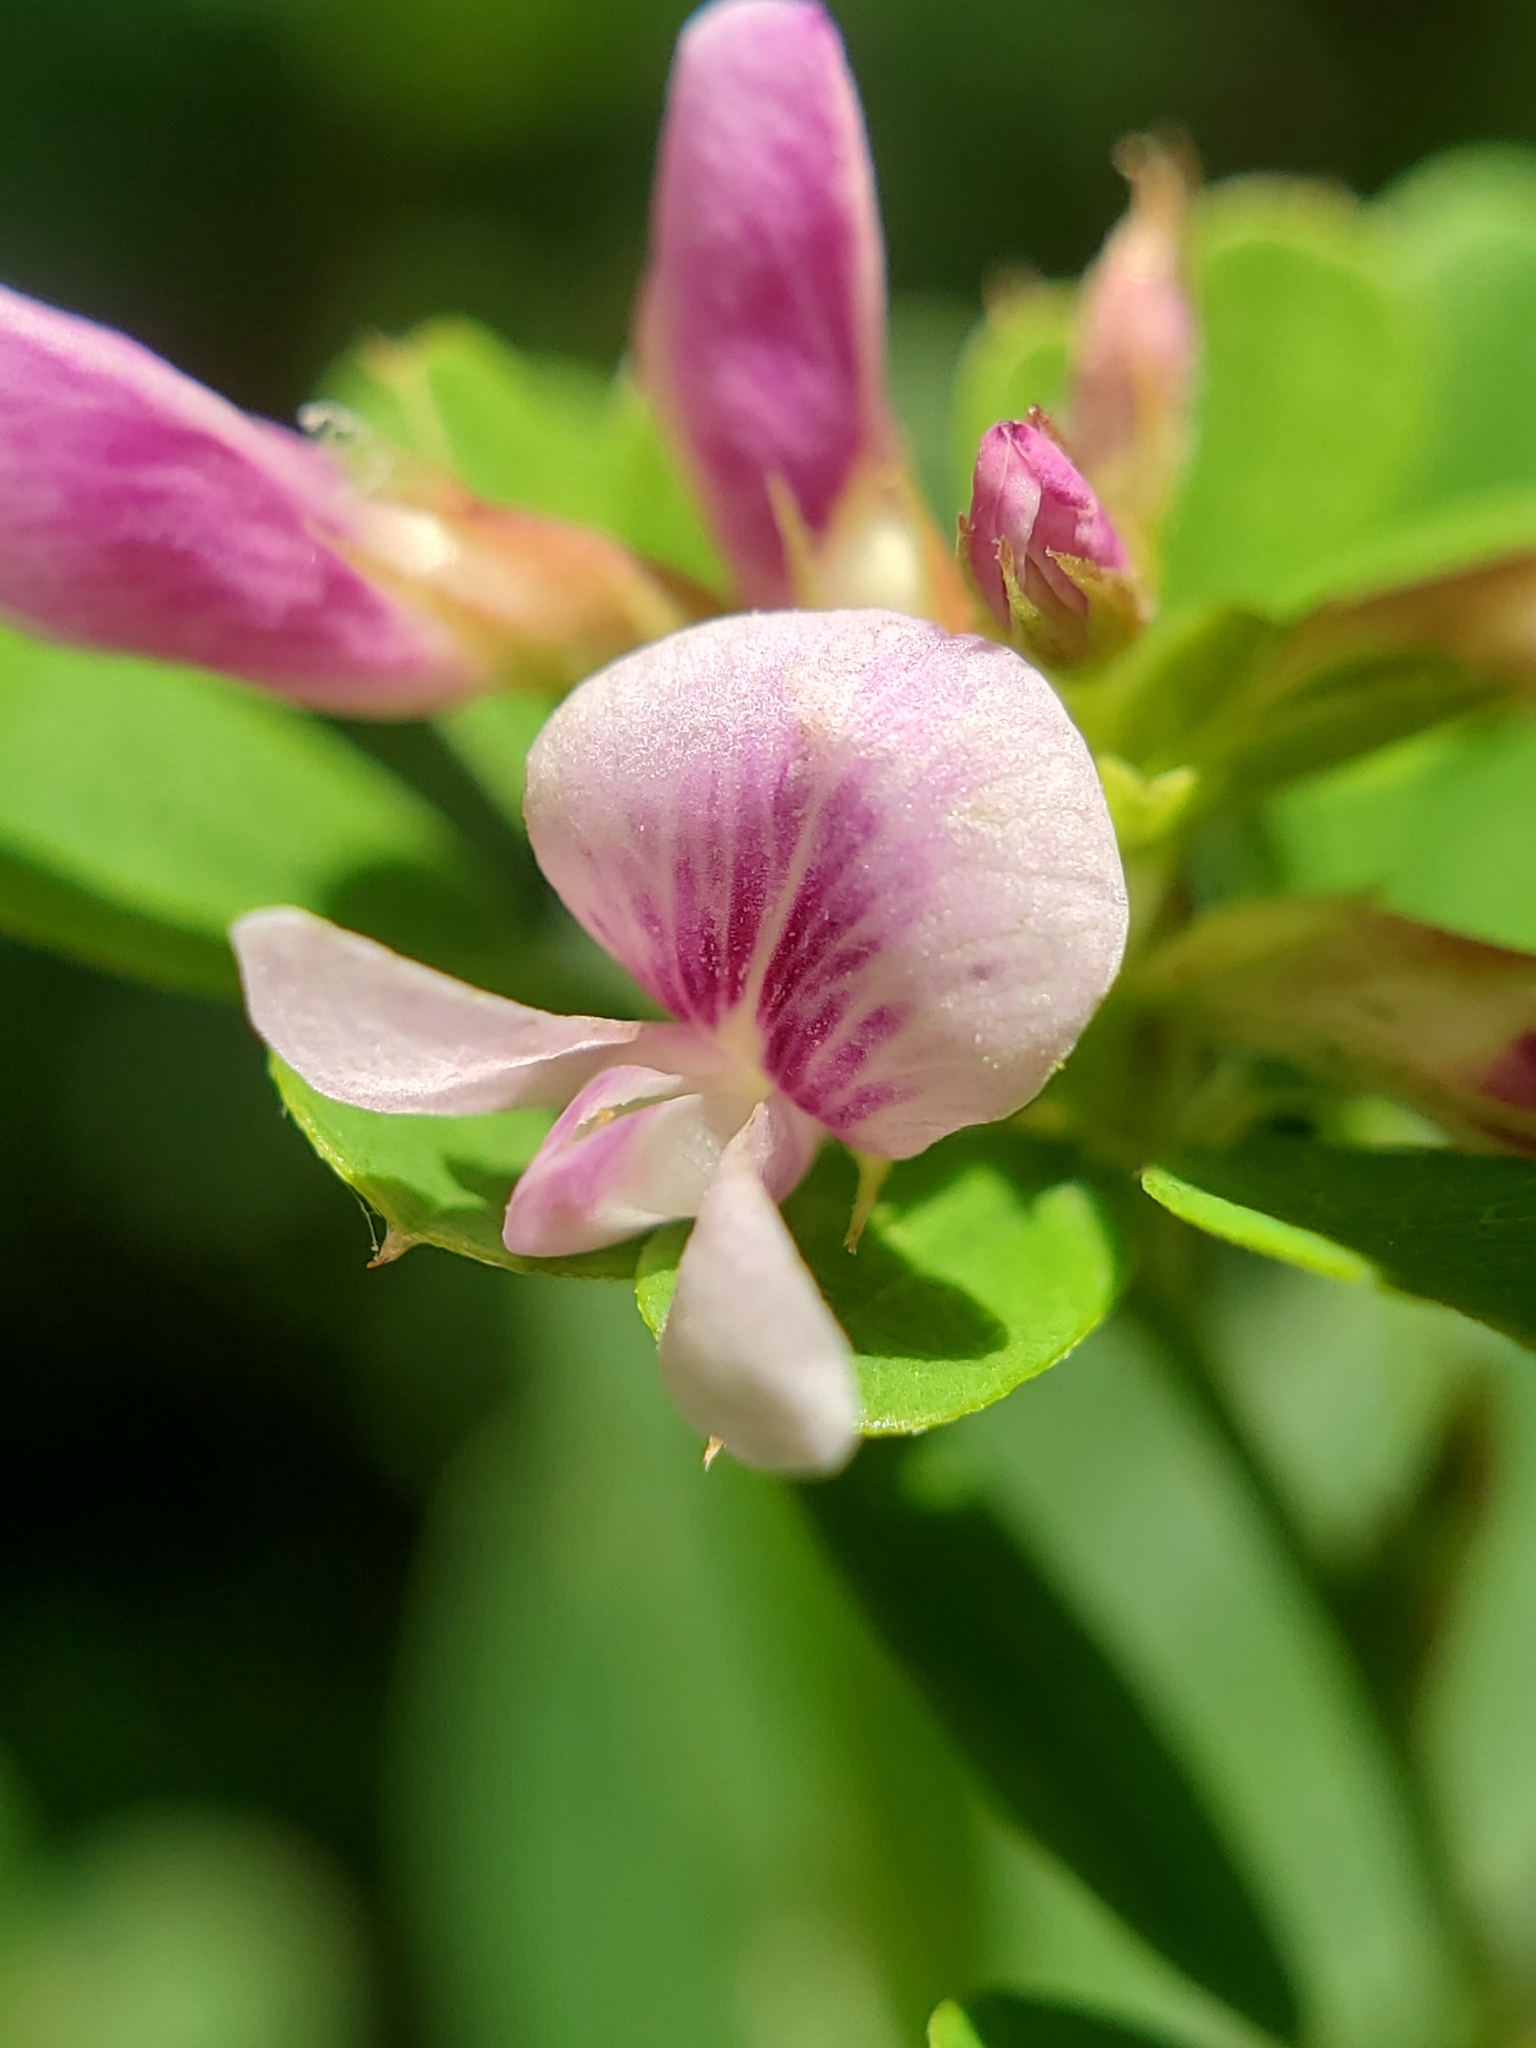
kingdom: Plantae
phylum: Tracheophyta
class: Magnoliopsida
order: Fabales
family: Fabaceae
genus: Lespedeza
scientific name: Lespedeza violacea
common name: Wand bush-clover
